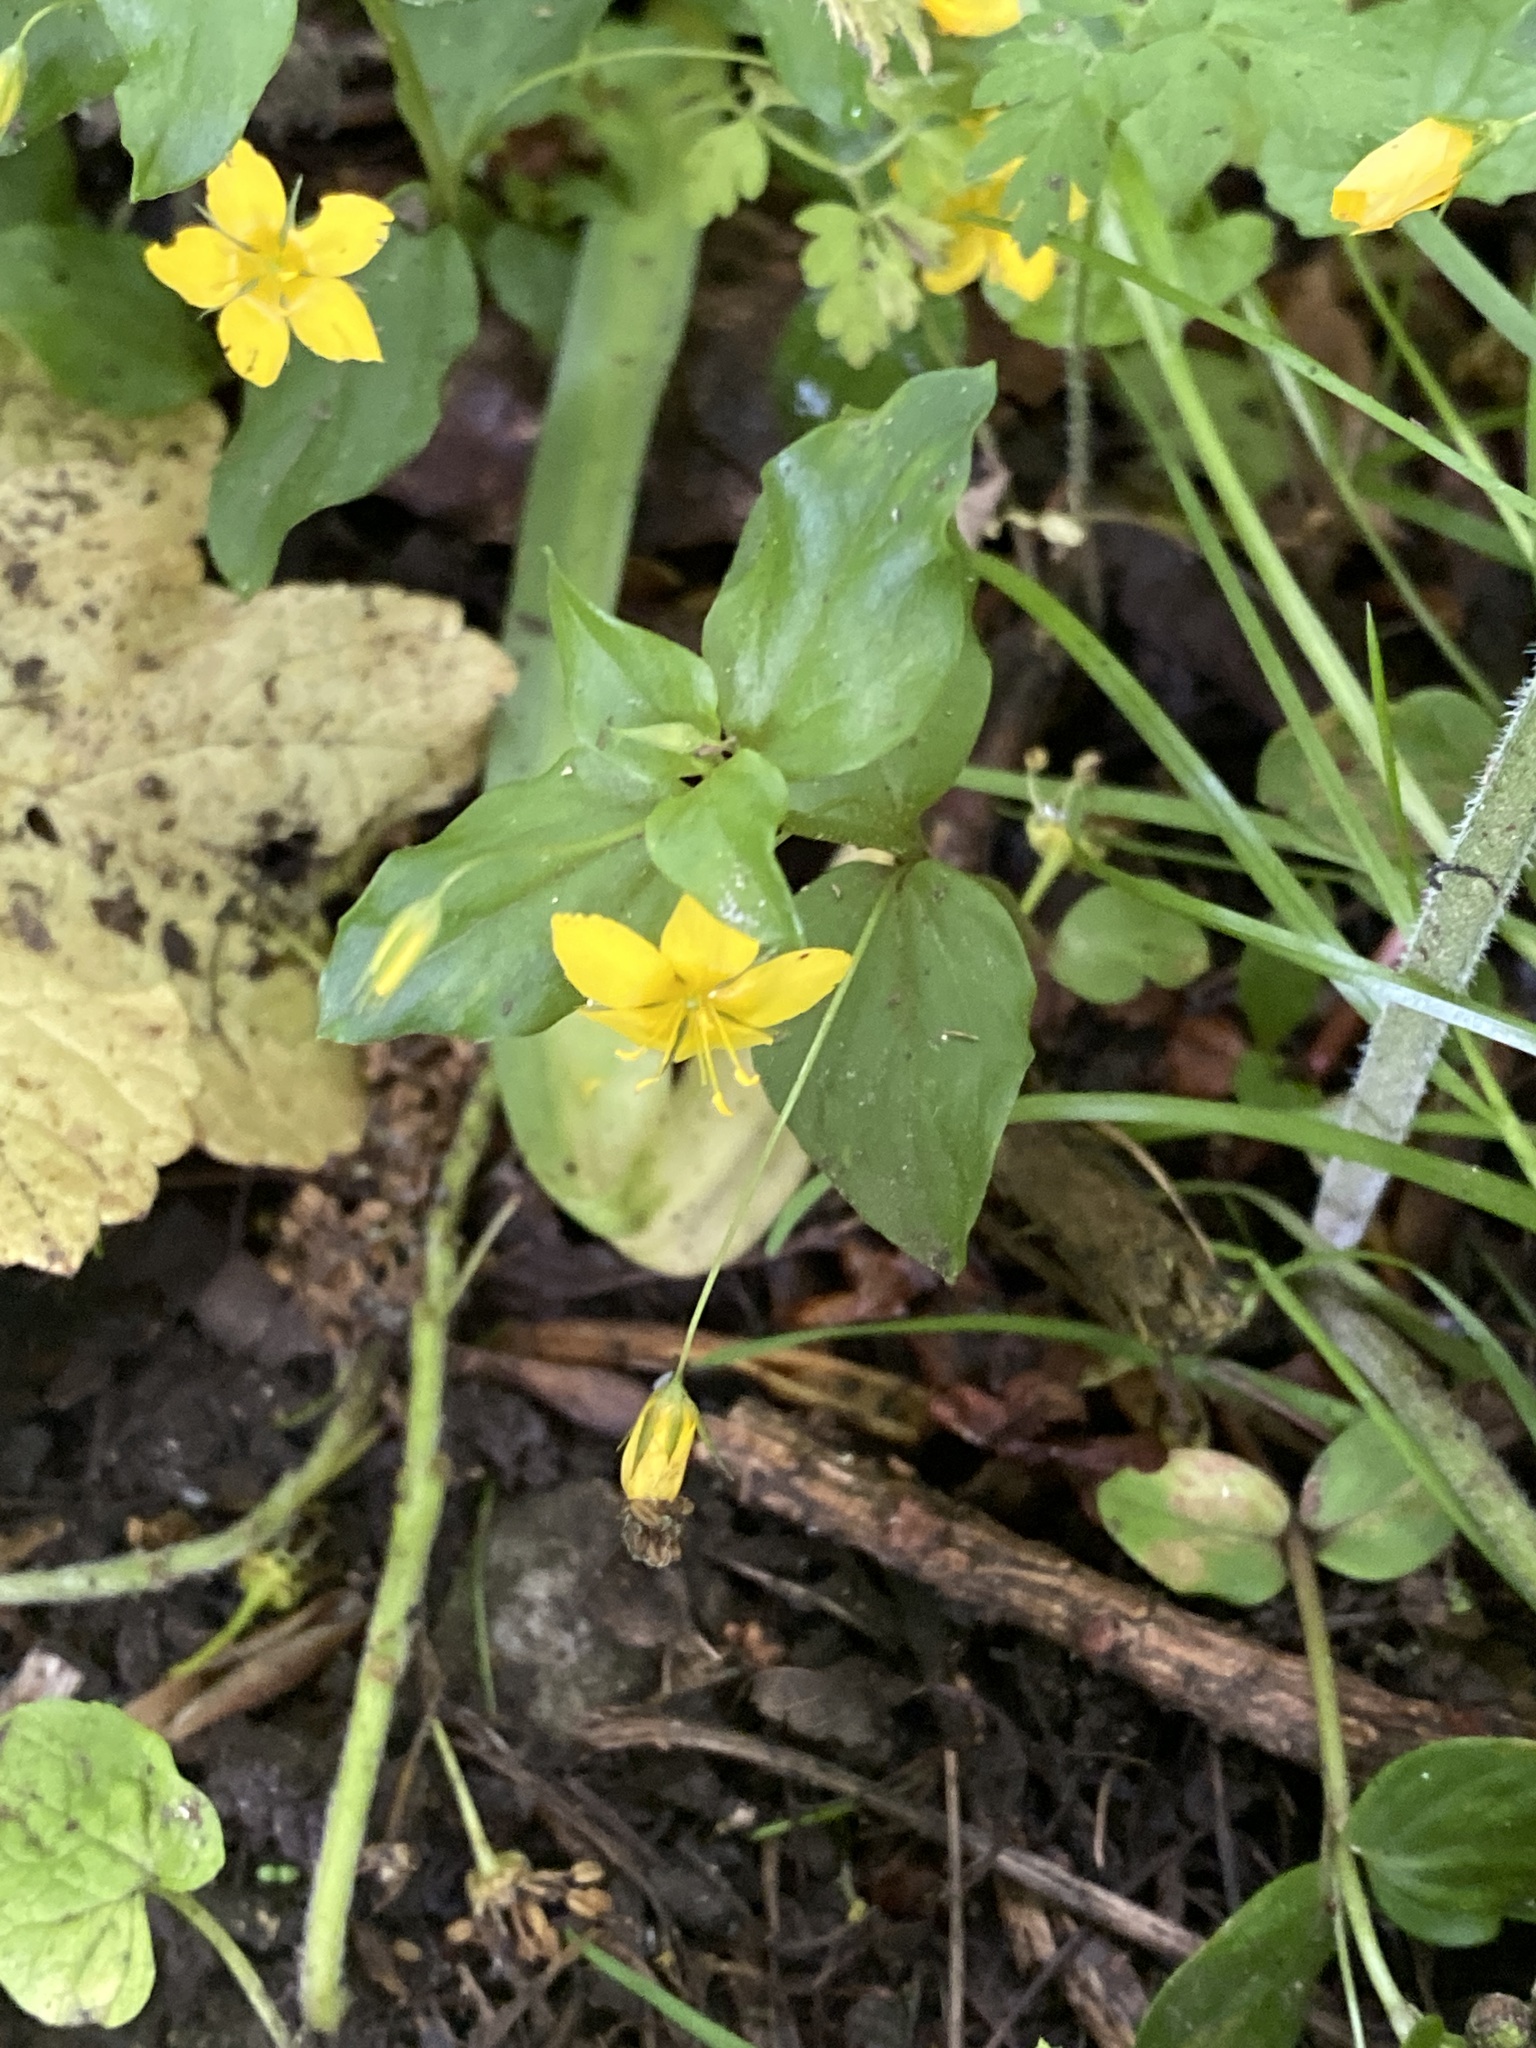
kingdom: Plantae
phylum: Tracheophyta
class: Magnoliopsida
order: Ericales
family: Primulaceae
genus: Lysimachia
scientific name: Lysimachia nemorum
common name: Yellow pimpernel
